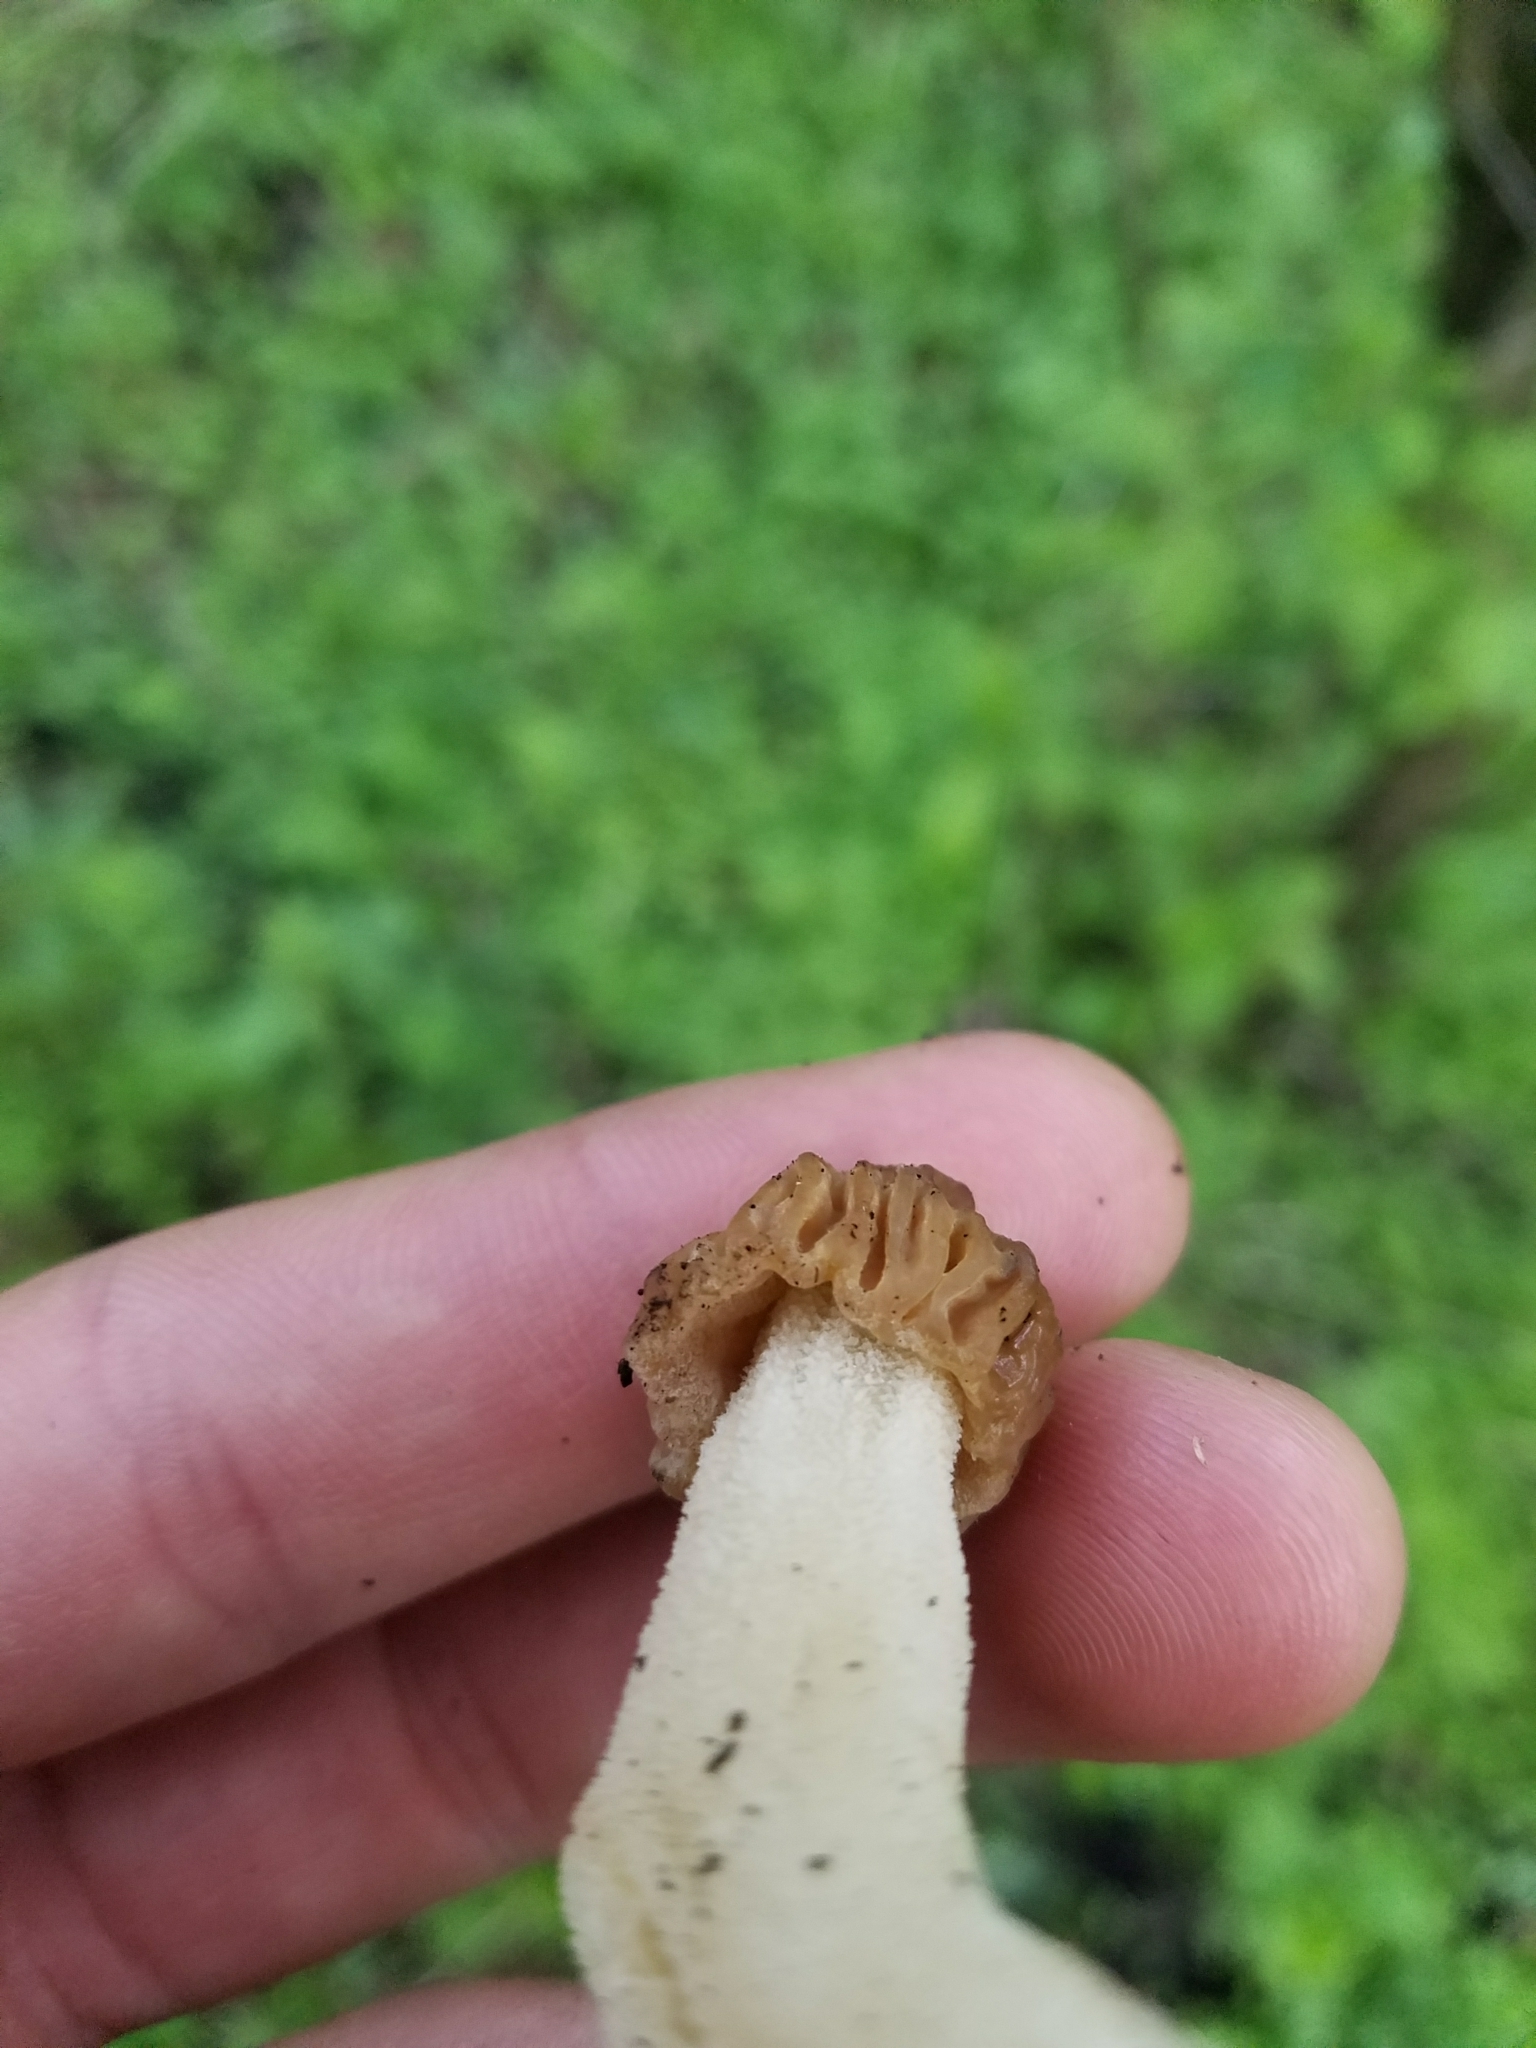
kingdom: Fungi
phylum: Ascomycota
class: Pezizomycetes
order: Pezizales
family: Morchellaceae
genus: Morchella
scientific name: Morchella punctipes
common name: Half-free morel
